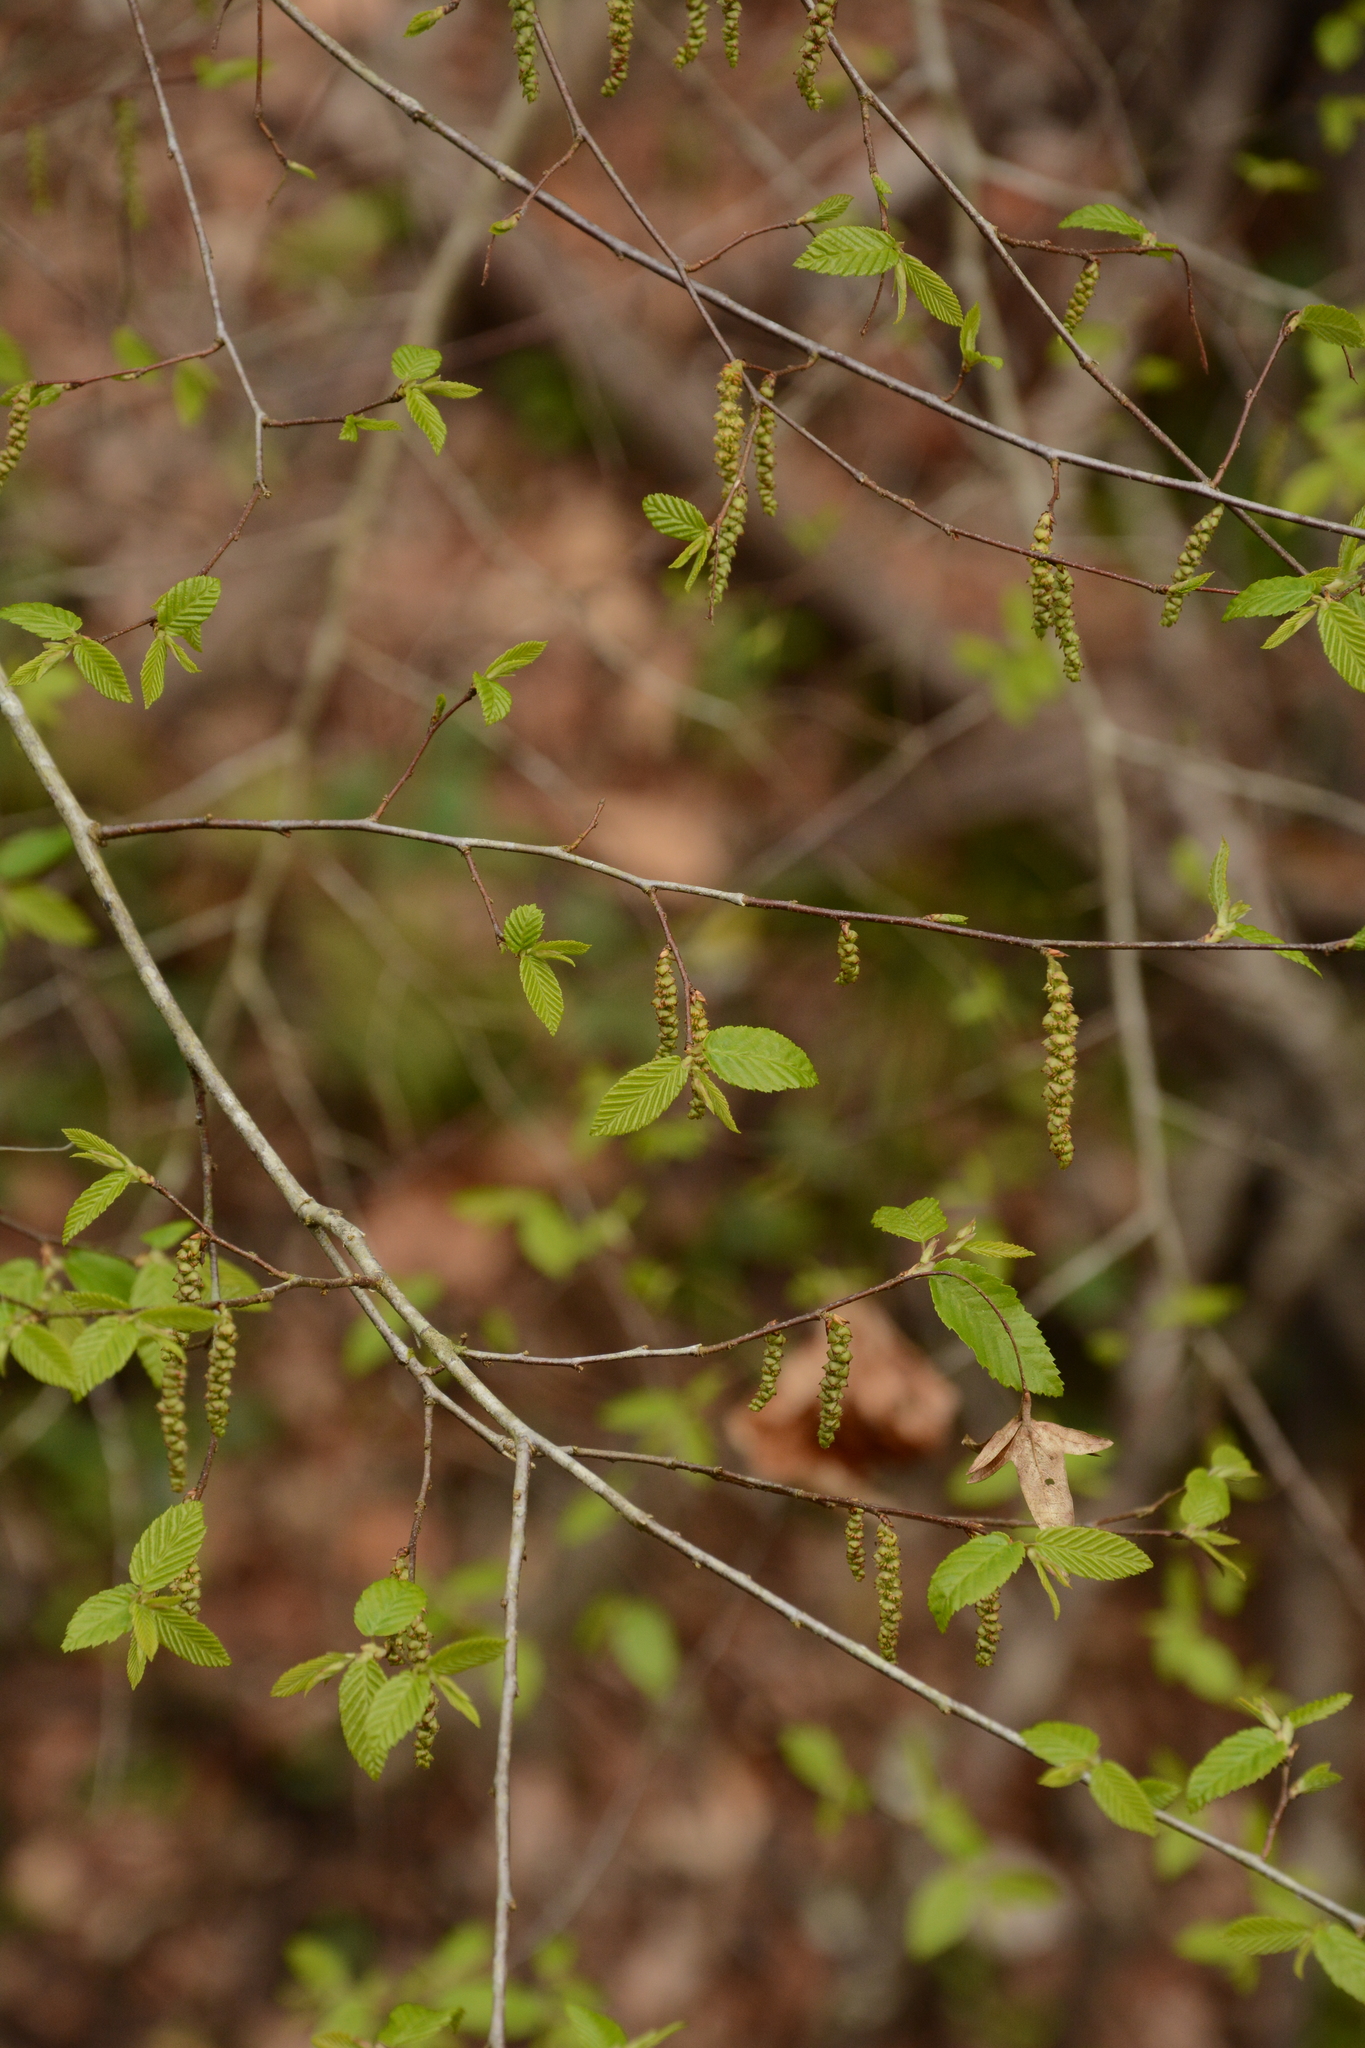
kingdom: Plantae
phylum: Tracheophyta
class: Magnoliopsida
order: Fagales
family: Betulaceae
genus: Carpinus
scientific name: Carpinus caroliniana
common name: American hornbeam
